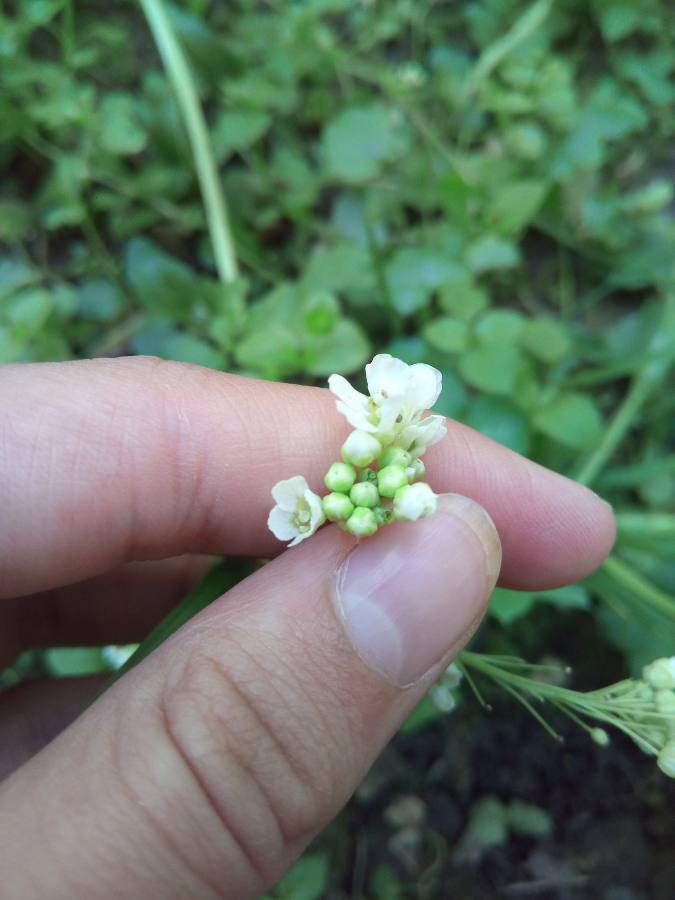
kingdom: Plantae
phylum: Tracheophyta
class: Magnoliopsida
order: Brassicales
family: Brassicaceae
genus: Armoracia
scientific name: Armoracia rusticana
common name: Horseradish
